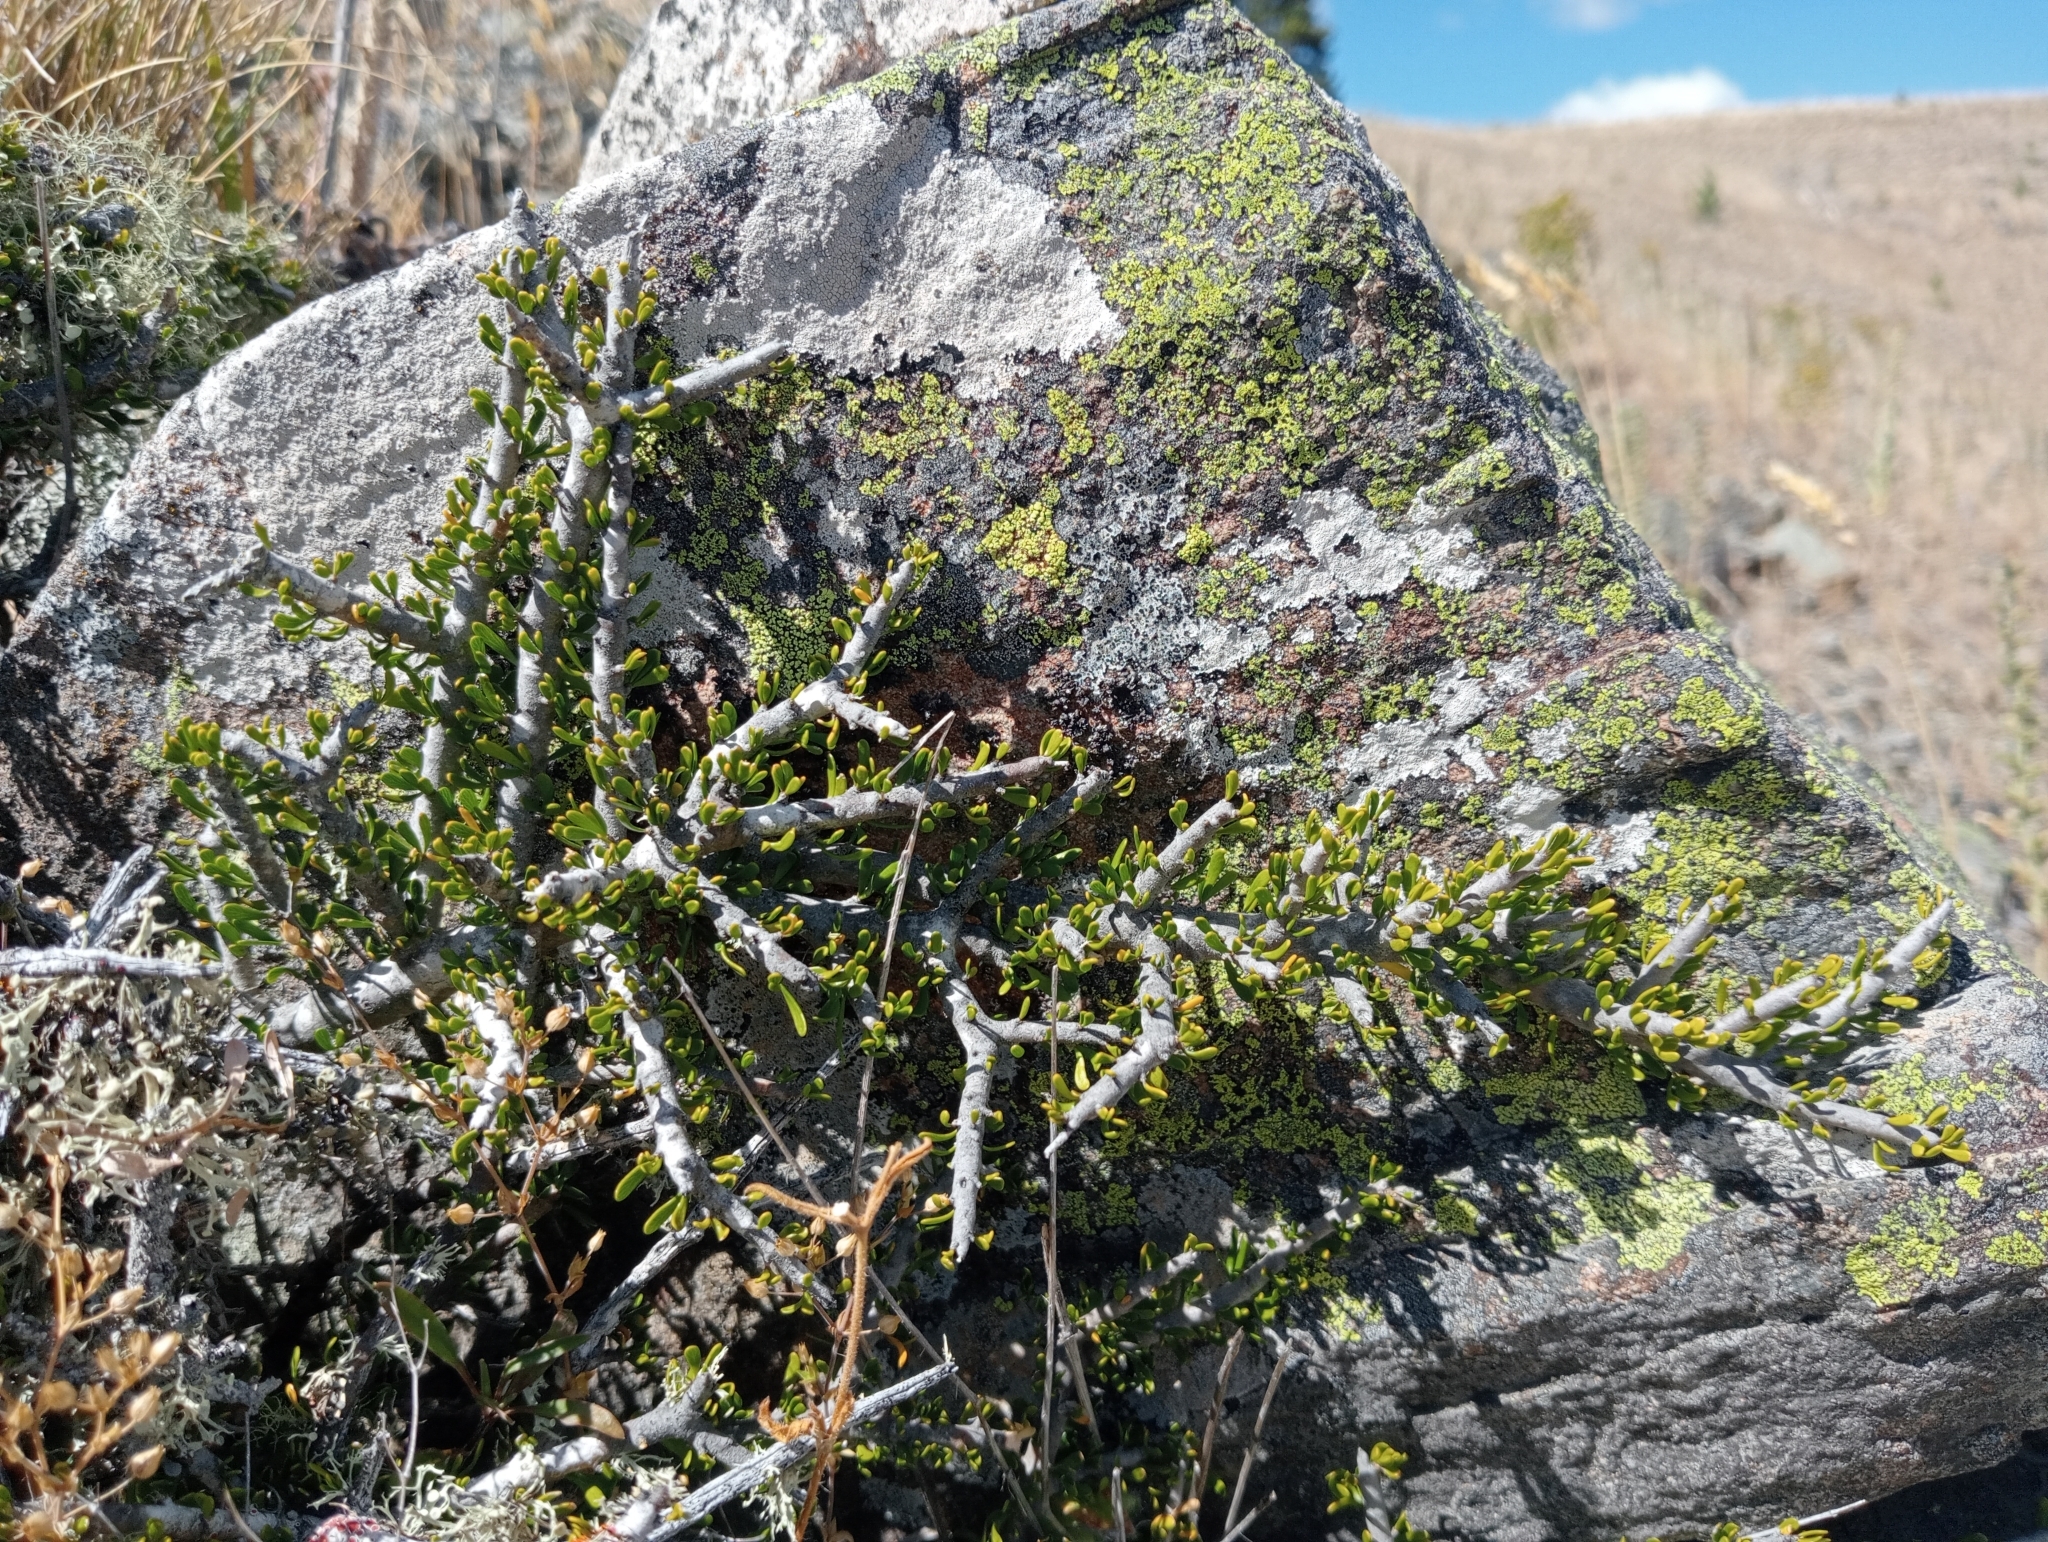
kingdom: Plantae
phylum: Tracheophyta
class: Magnoliopsida
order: Malpighiales
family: Violaceae
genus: Melicytus
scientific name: Melicytus alpinus
